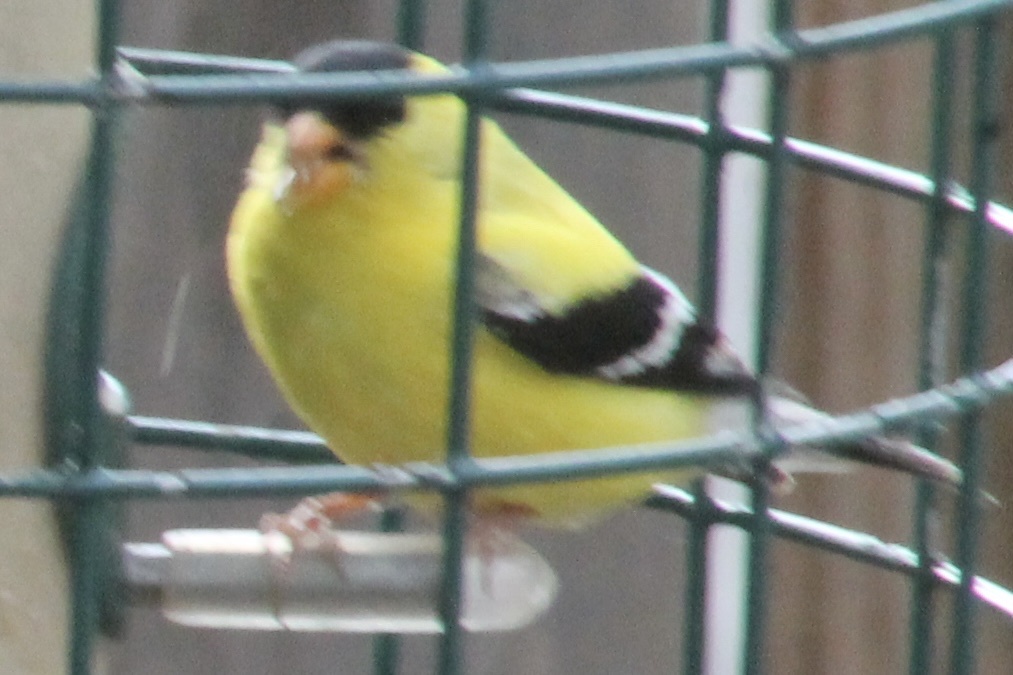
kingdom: Animalia
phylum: Chordata
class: Aves
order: Passeriformes
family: Fringillidae
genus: Spinus
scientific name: Spinus tristis
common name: American goldfinch
